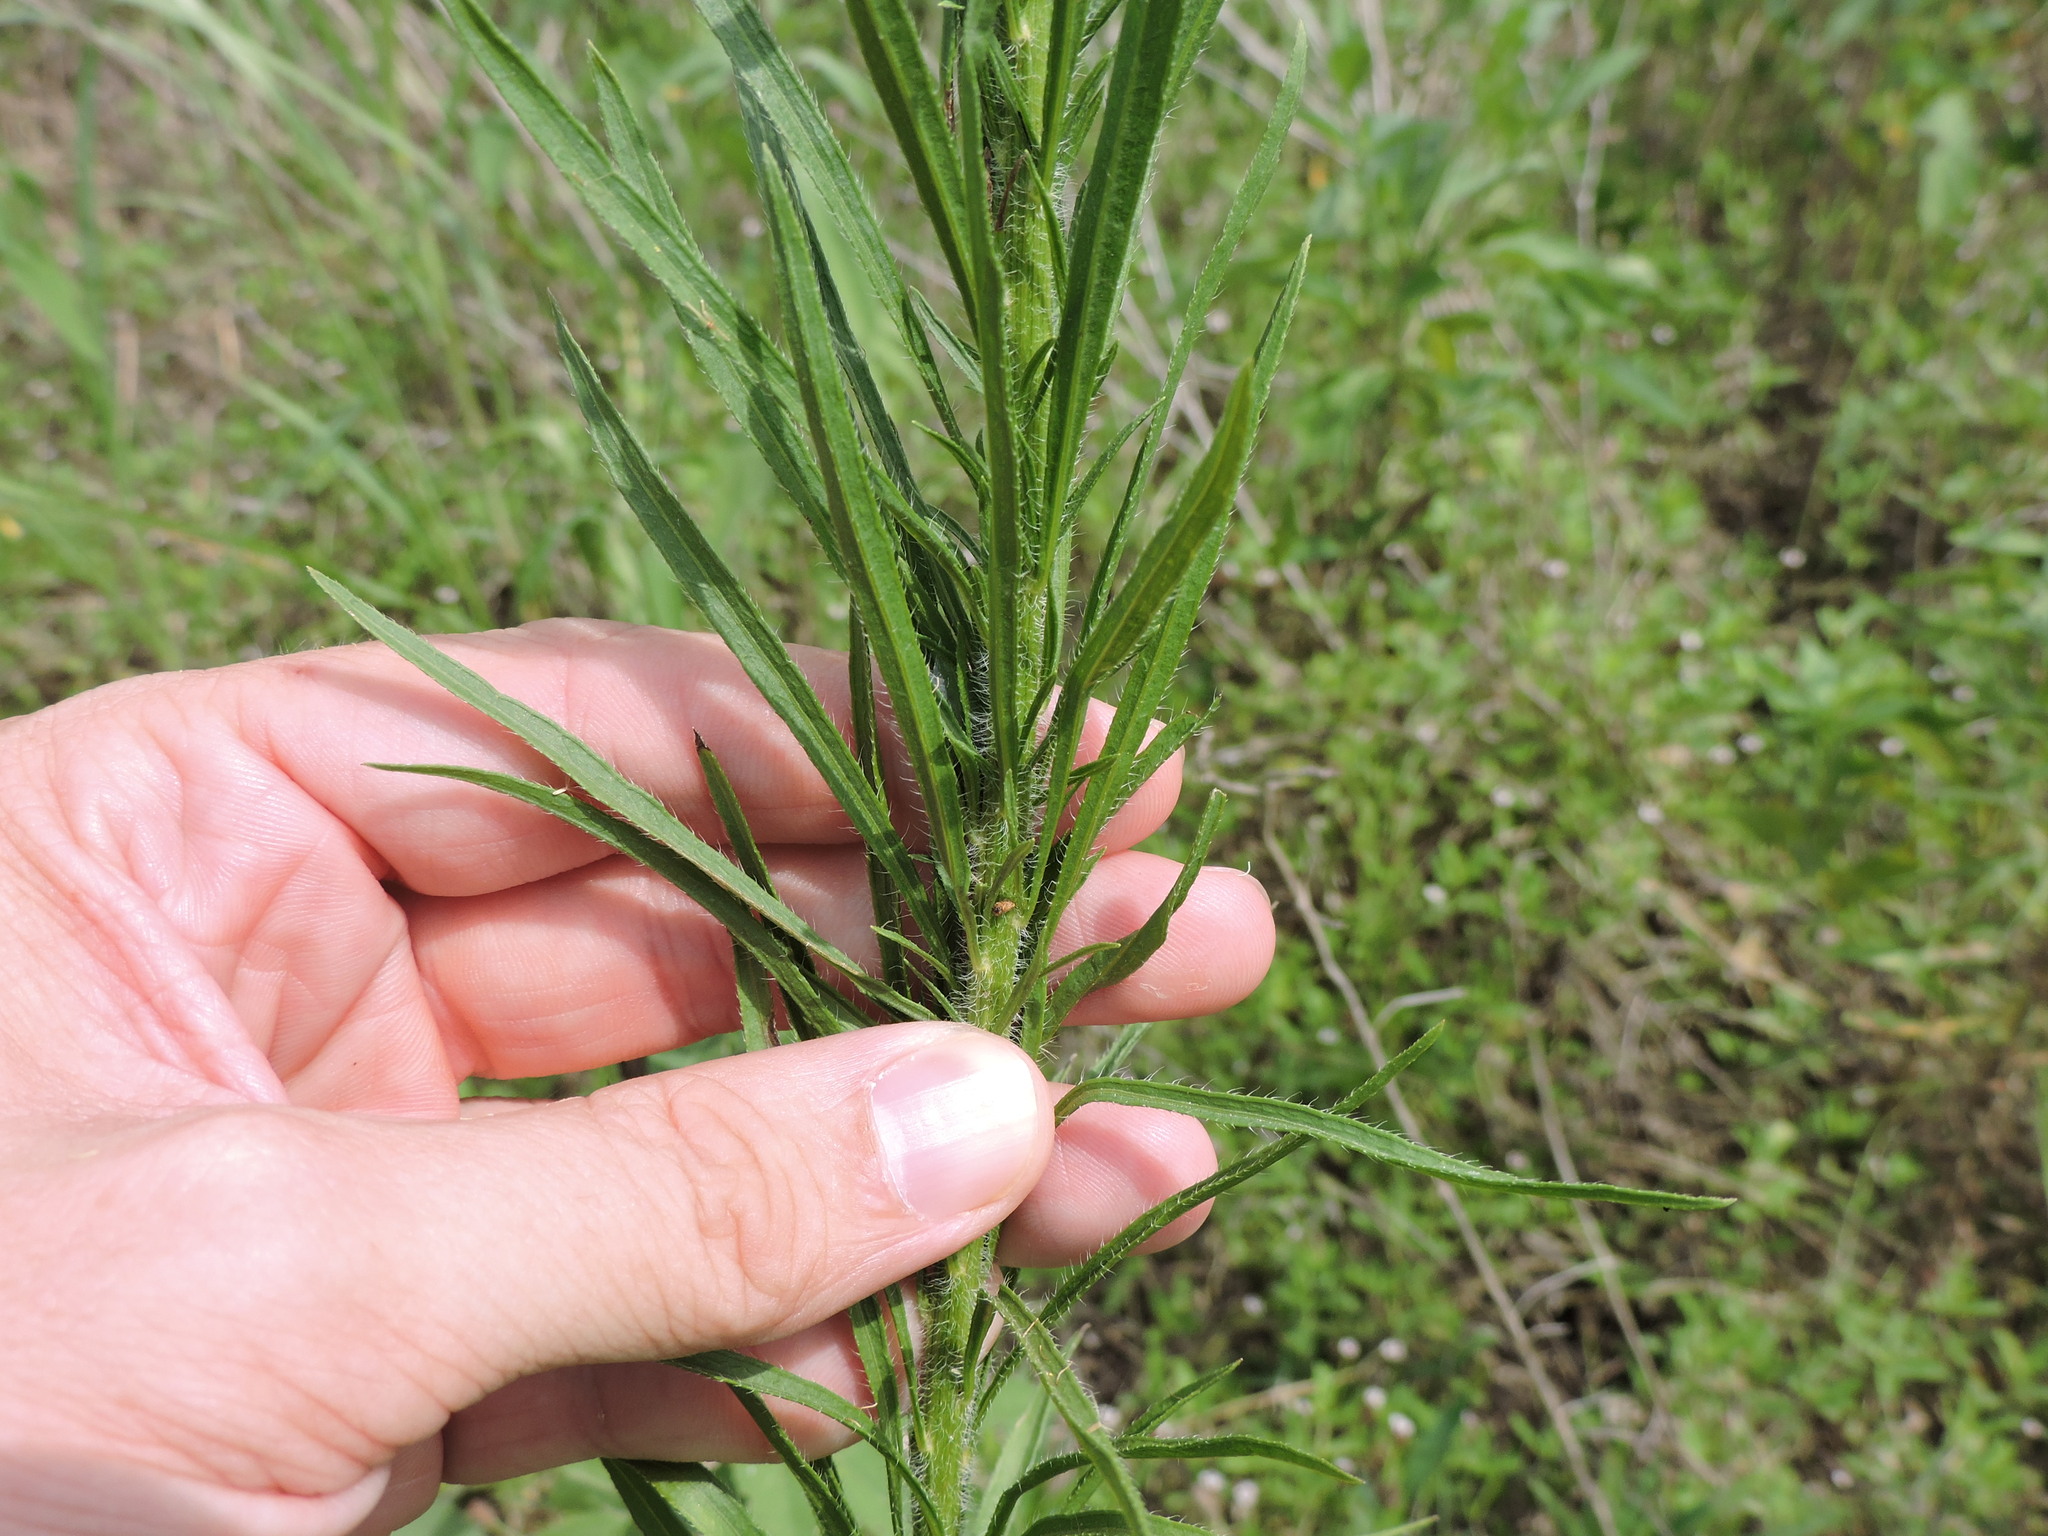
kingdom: Plantae
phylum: Tracheophyta
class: Magnoliopsida
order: Asterales
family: Asteraceae
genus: Erigeron
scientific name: Erigeron canadensis
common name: Canadian fleabane
